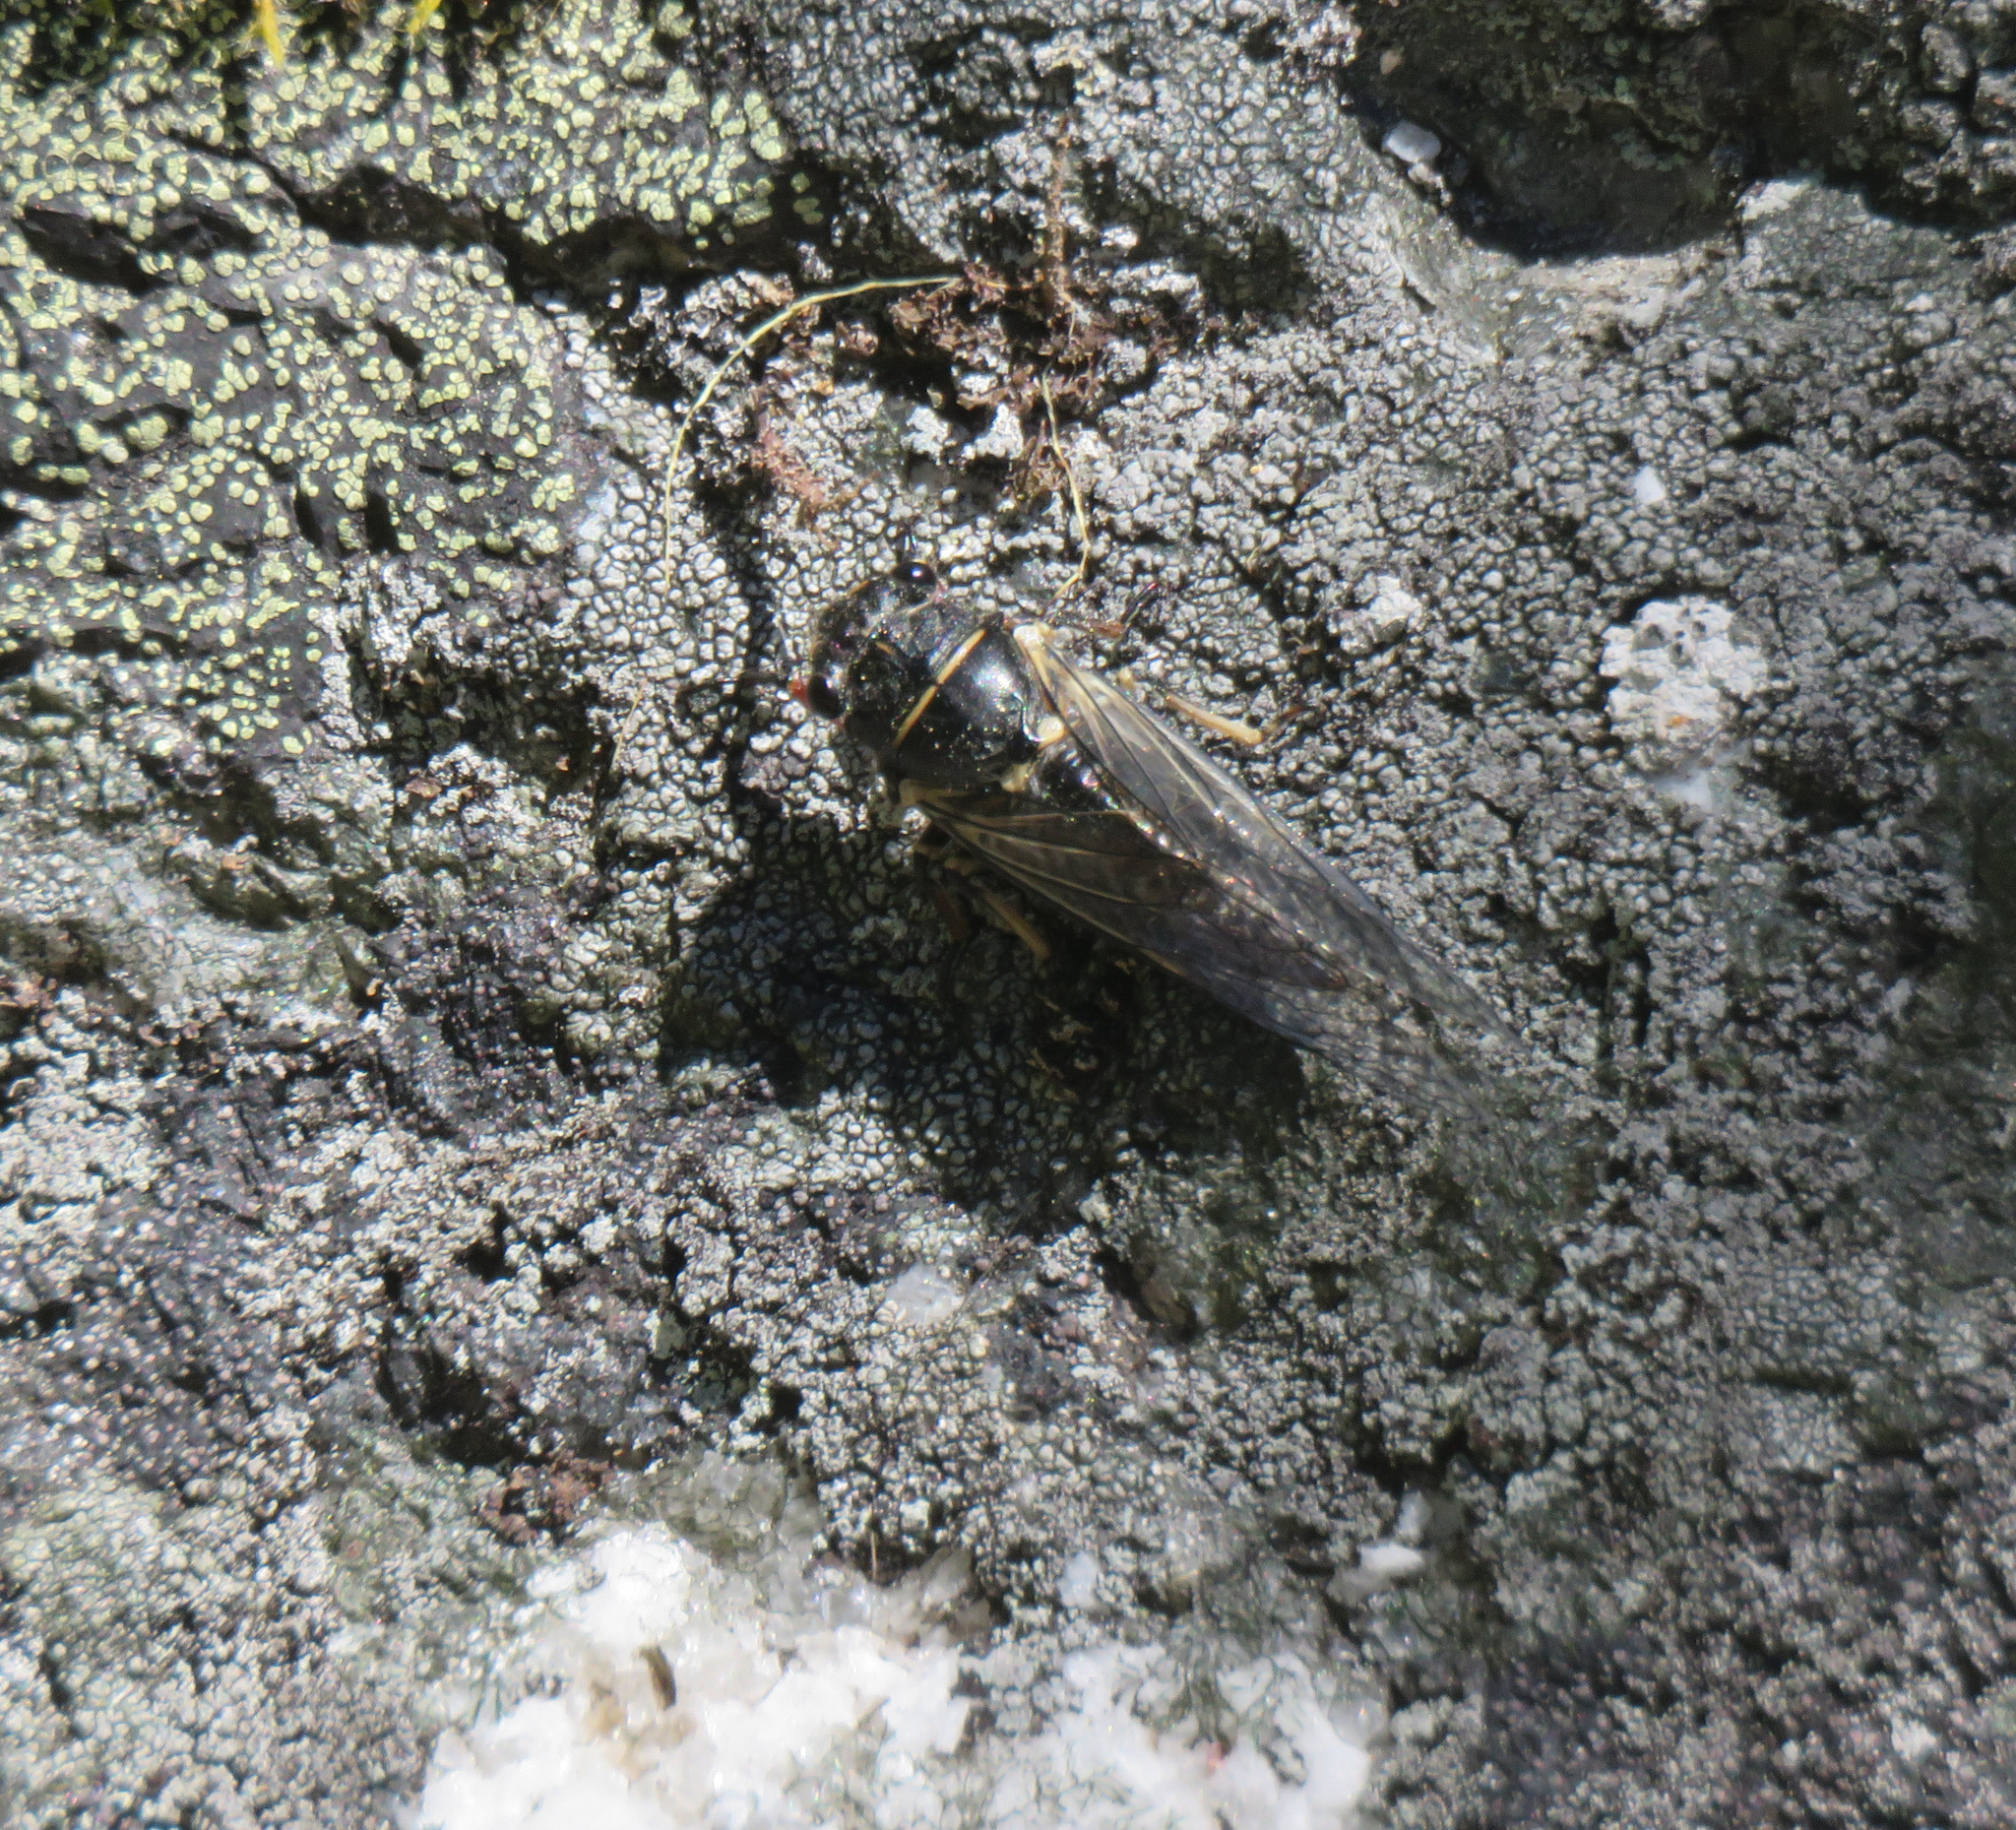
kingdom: Animalia
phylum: Arthropoda
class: Insecta
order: Hemiptera
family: Cicadidae
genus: Platypedia
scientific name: Platypedia areolata
